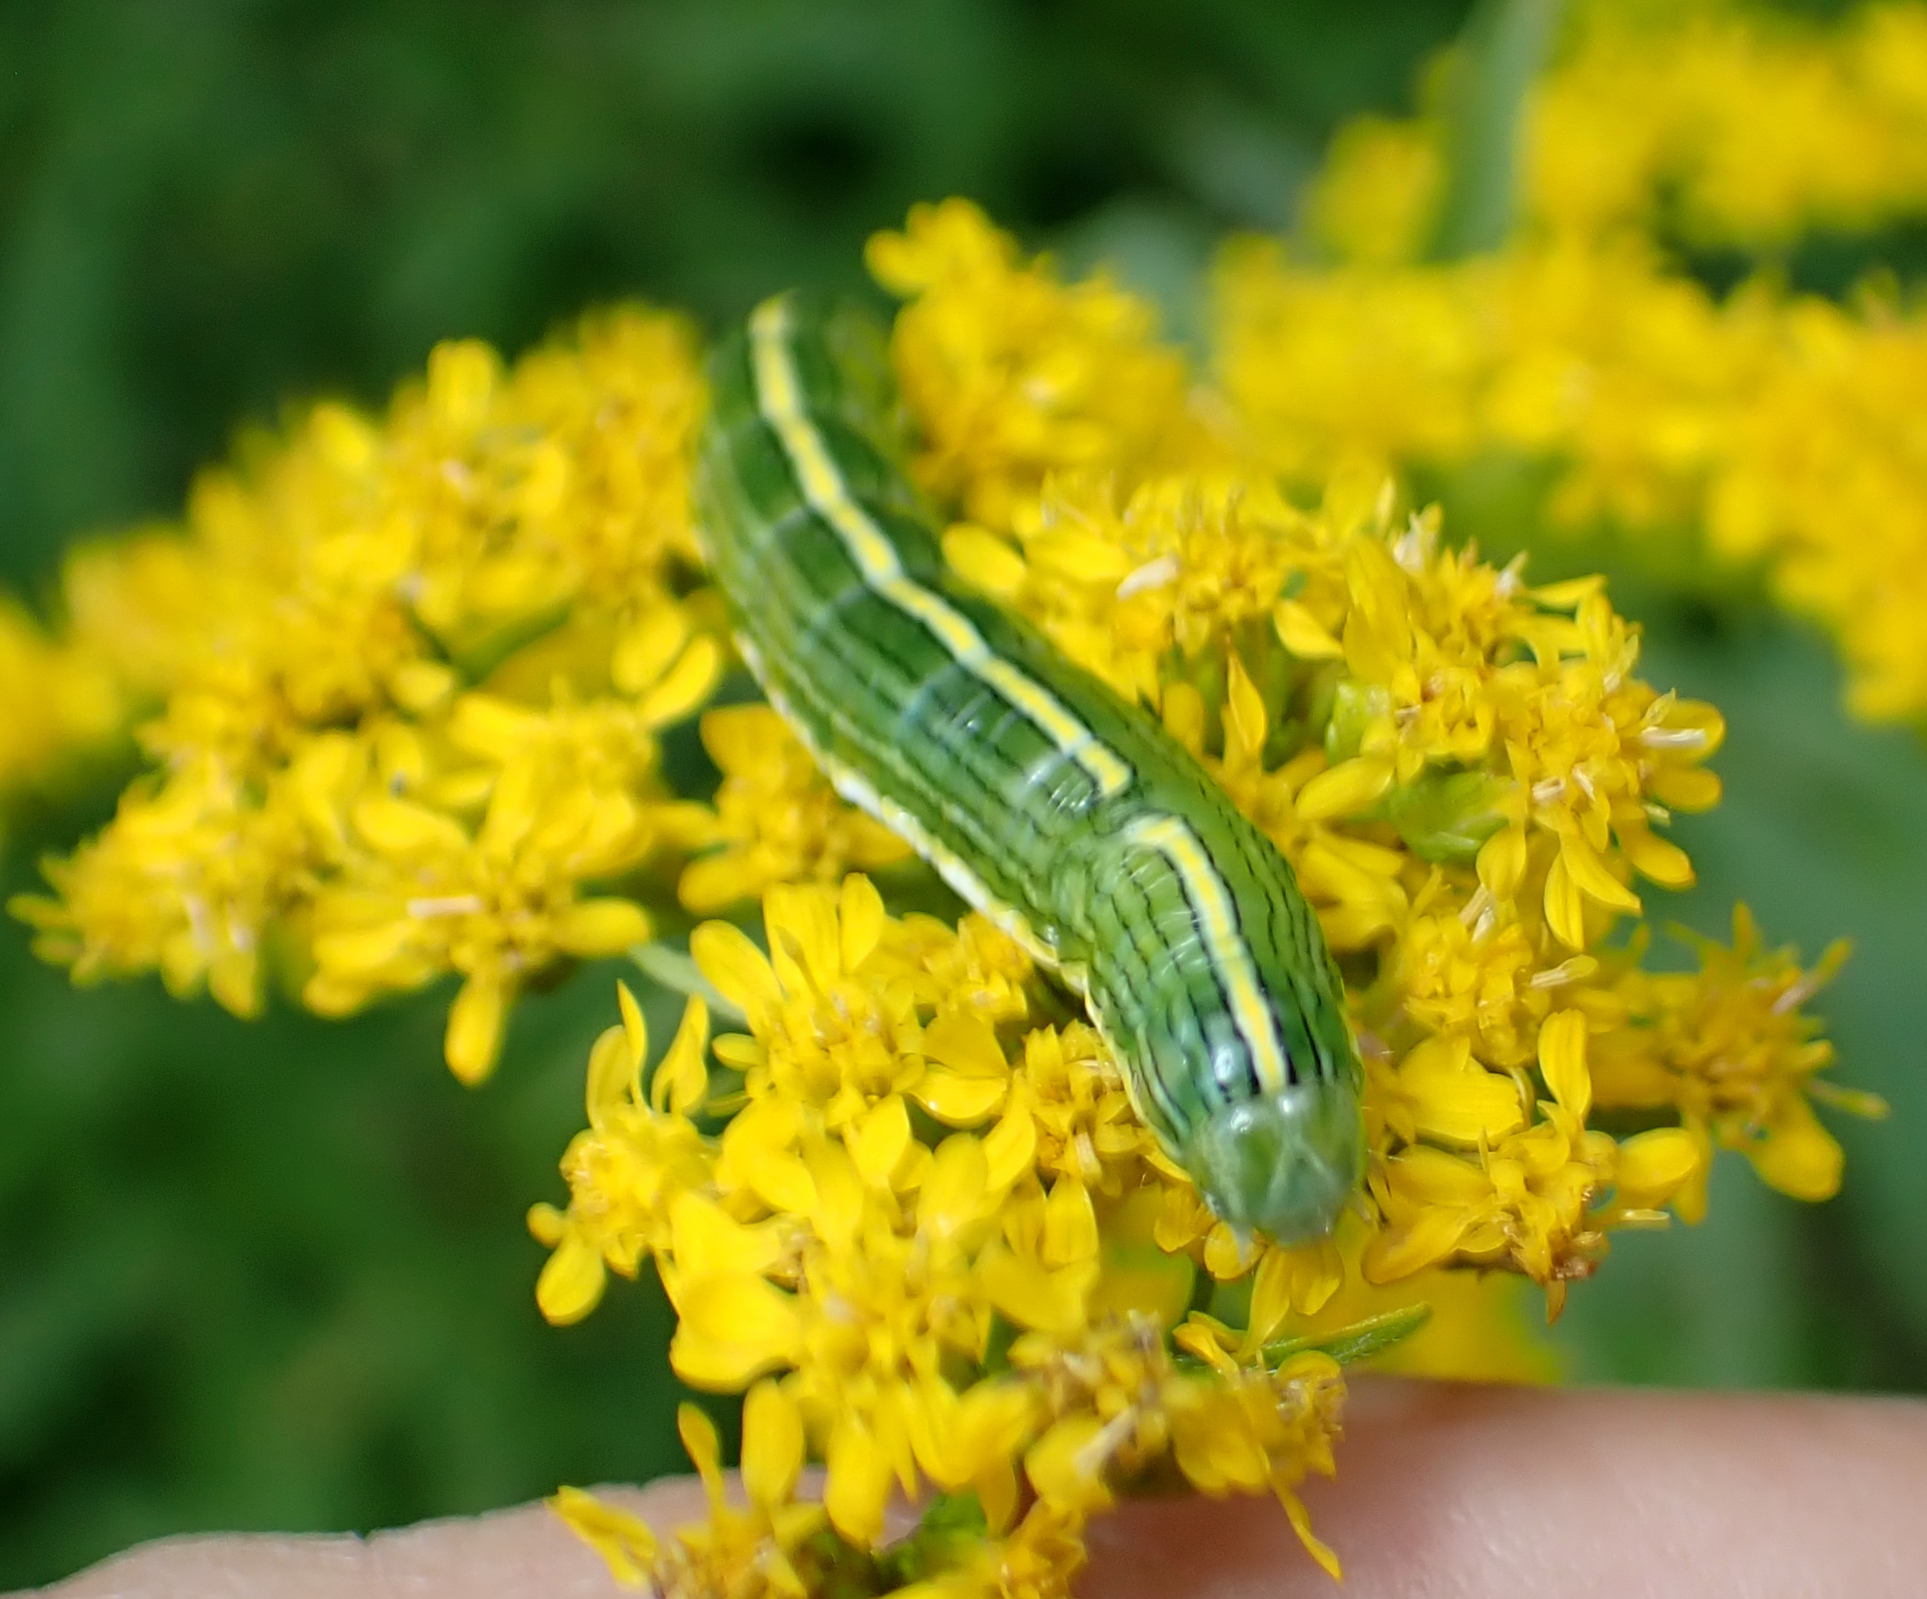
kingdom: Animalia
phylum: Arthropoda
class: Insecta
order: Lepidoptera
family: Noctuidae
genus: Cucullia
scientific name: Cucullia asteroides
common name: Asteroid moth
